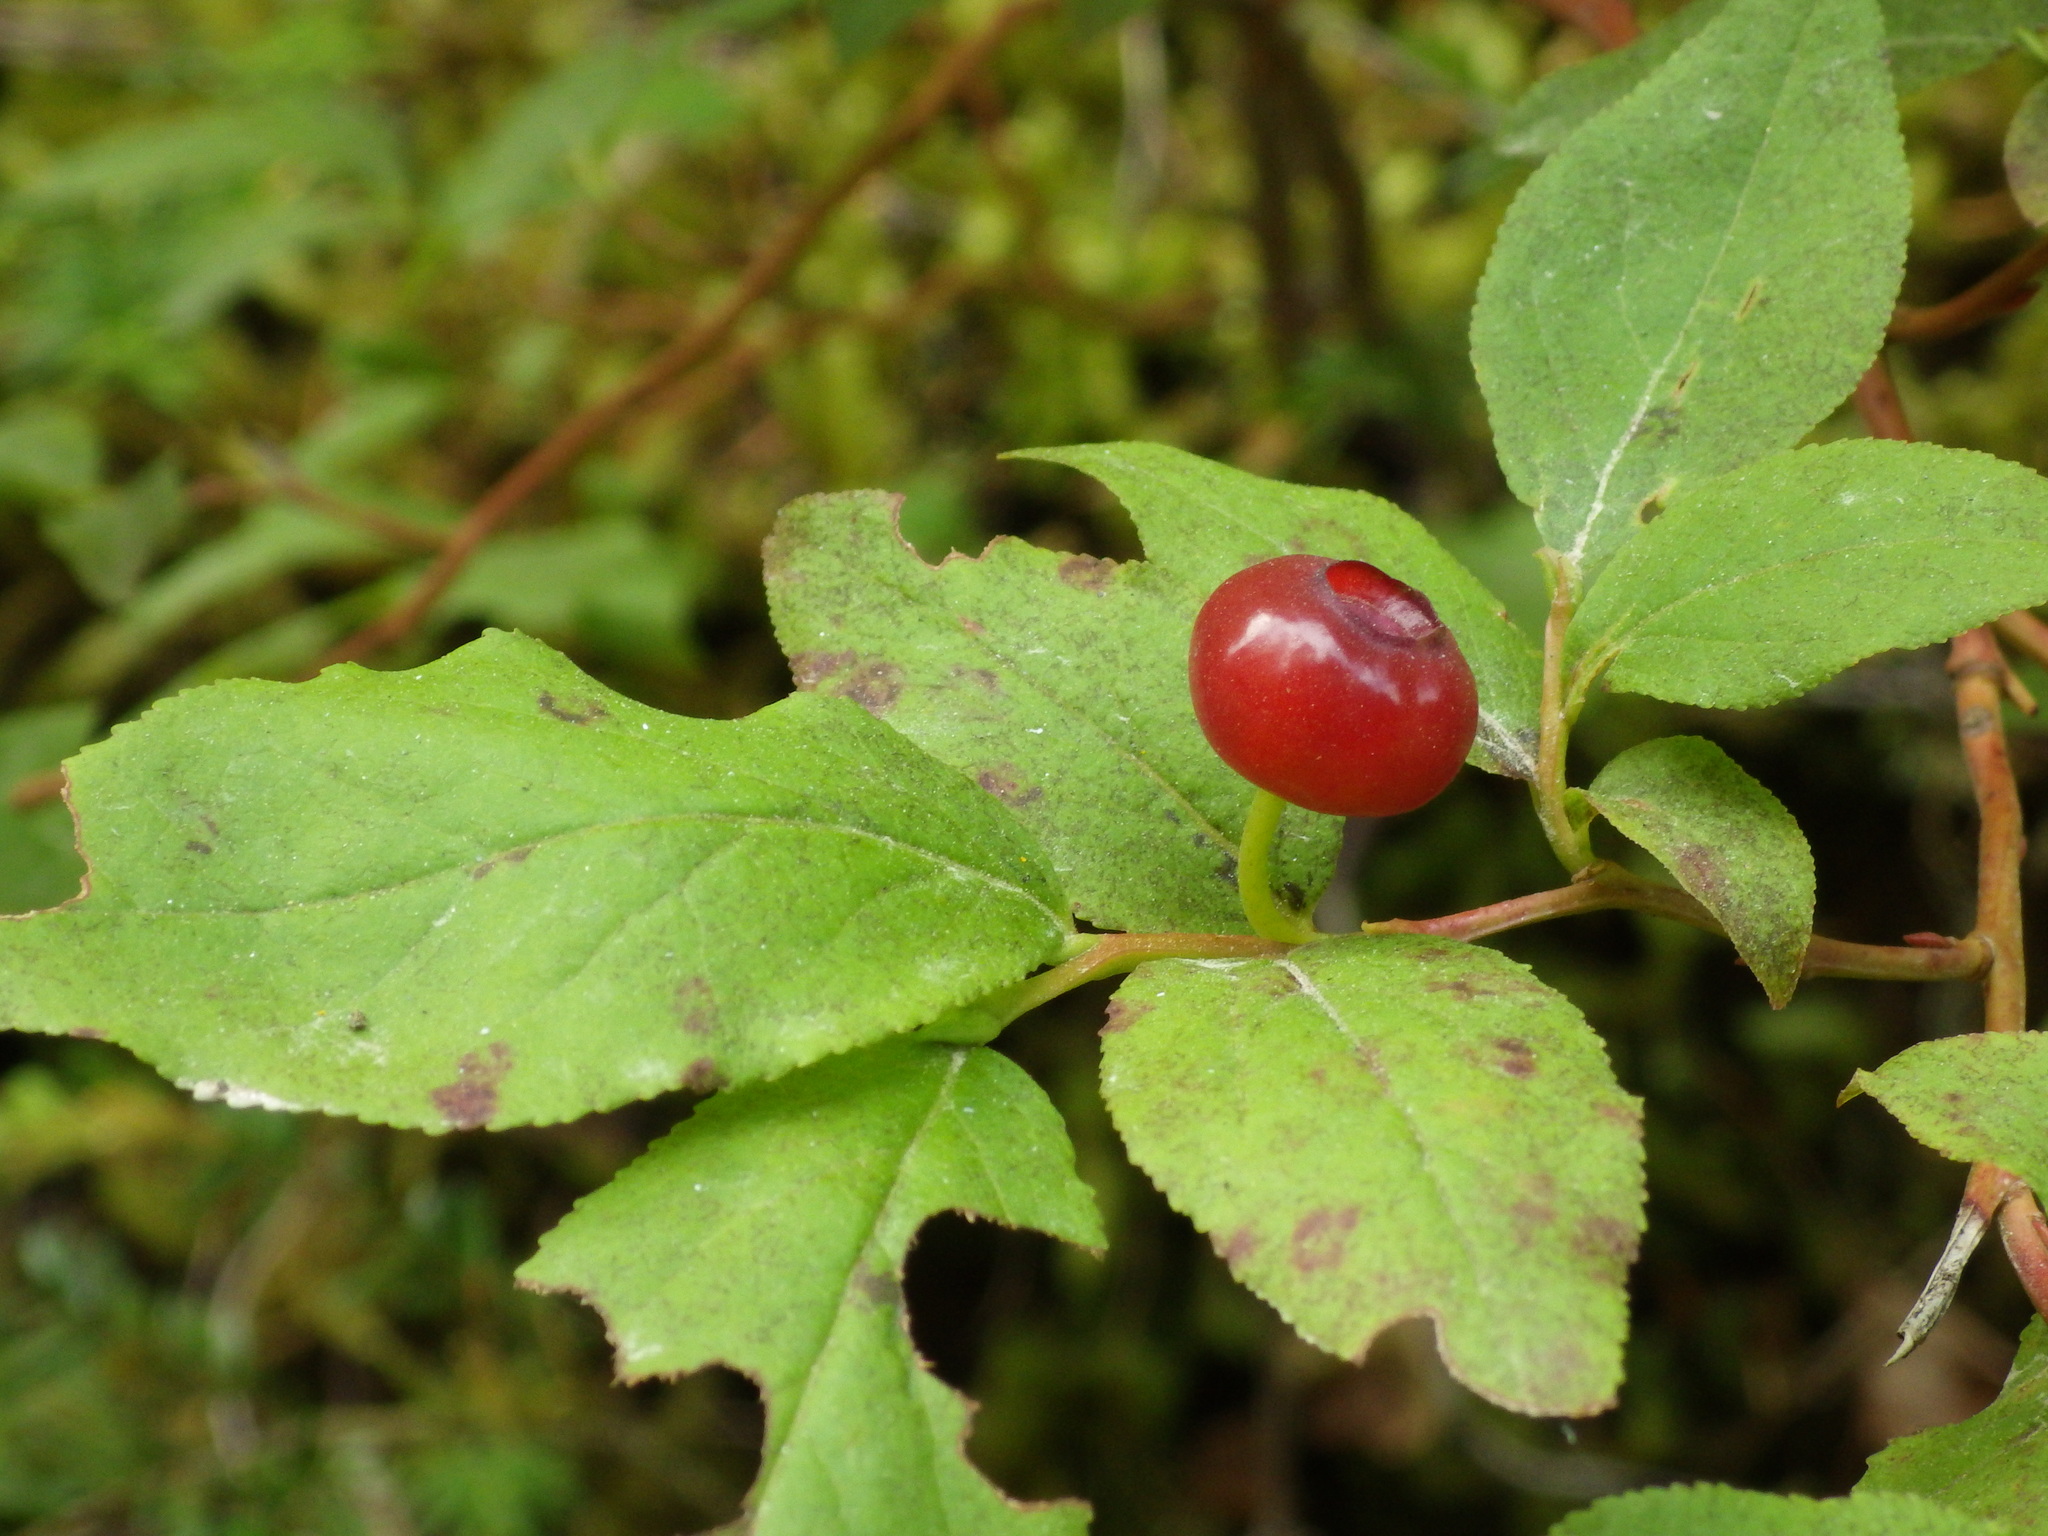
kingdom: Plantae
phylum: Tracheophyta
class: Magnoliopsida
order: Ericales
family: Ericaceae
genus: Vaccinium
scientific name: Vaccinium membranaceum
